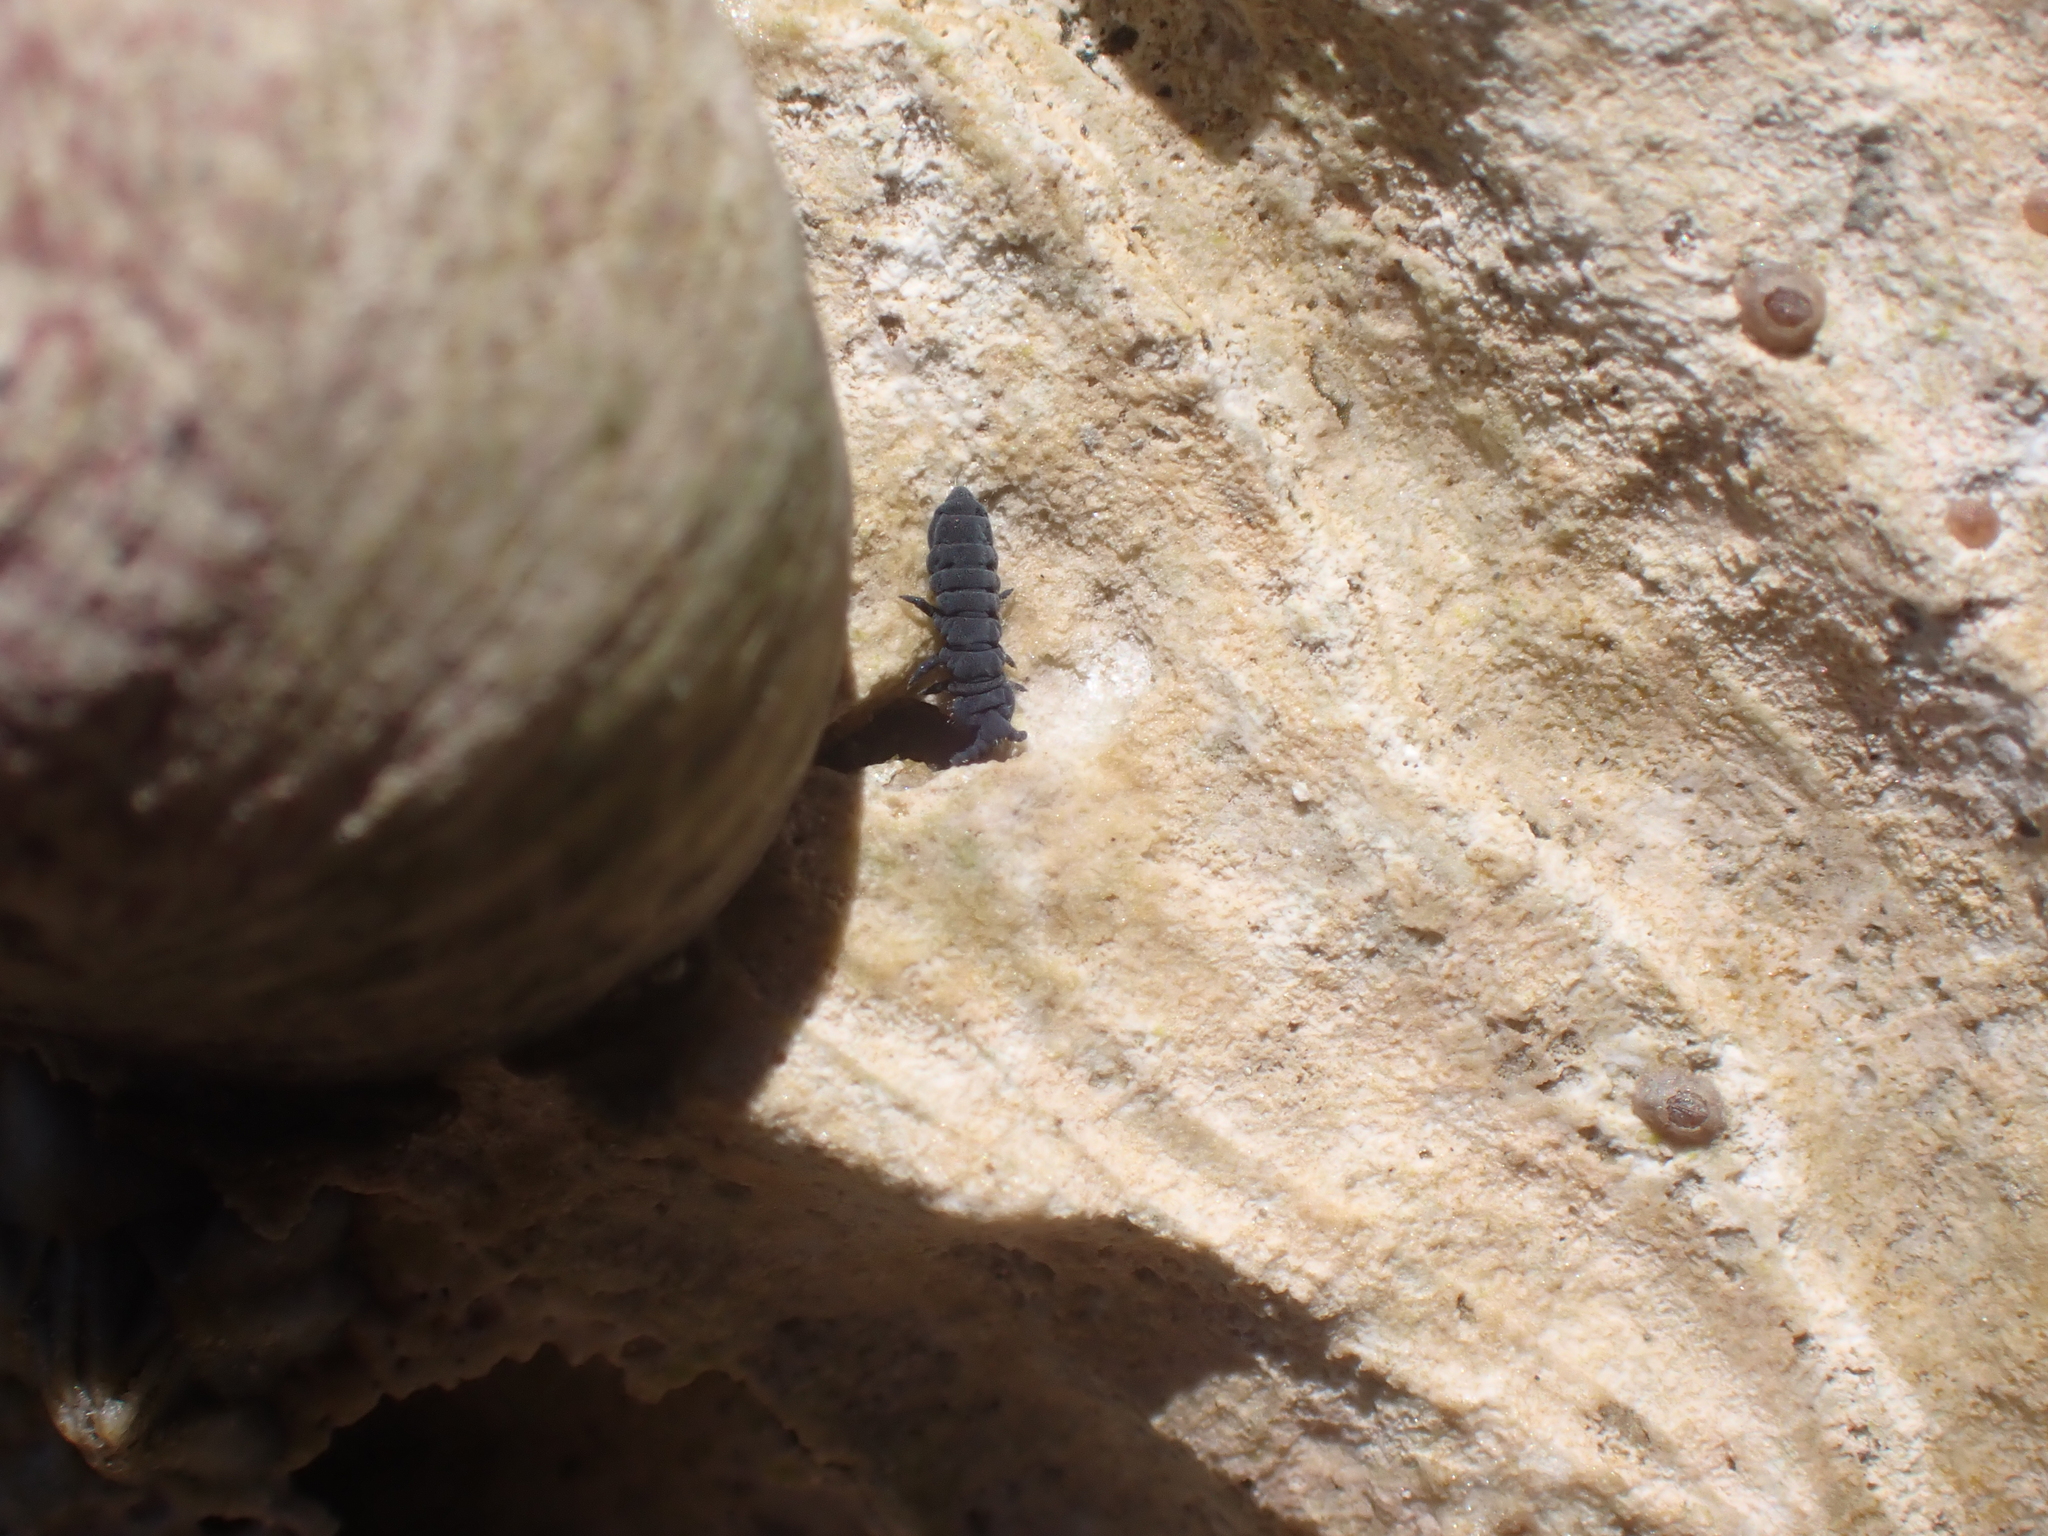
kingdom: Animalia
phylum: Arthropoda
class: Collembola
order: Poduromorpha
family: Neanuridae
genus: Anurida
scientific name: Anurida maritima
